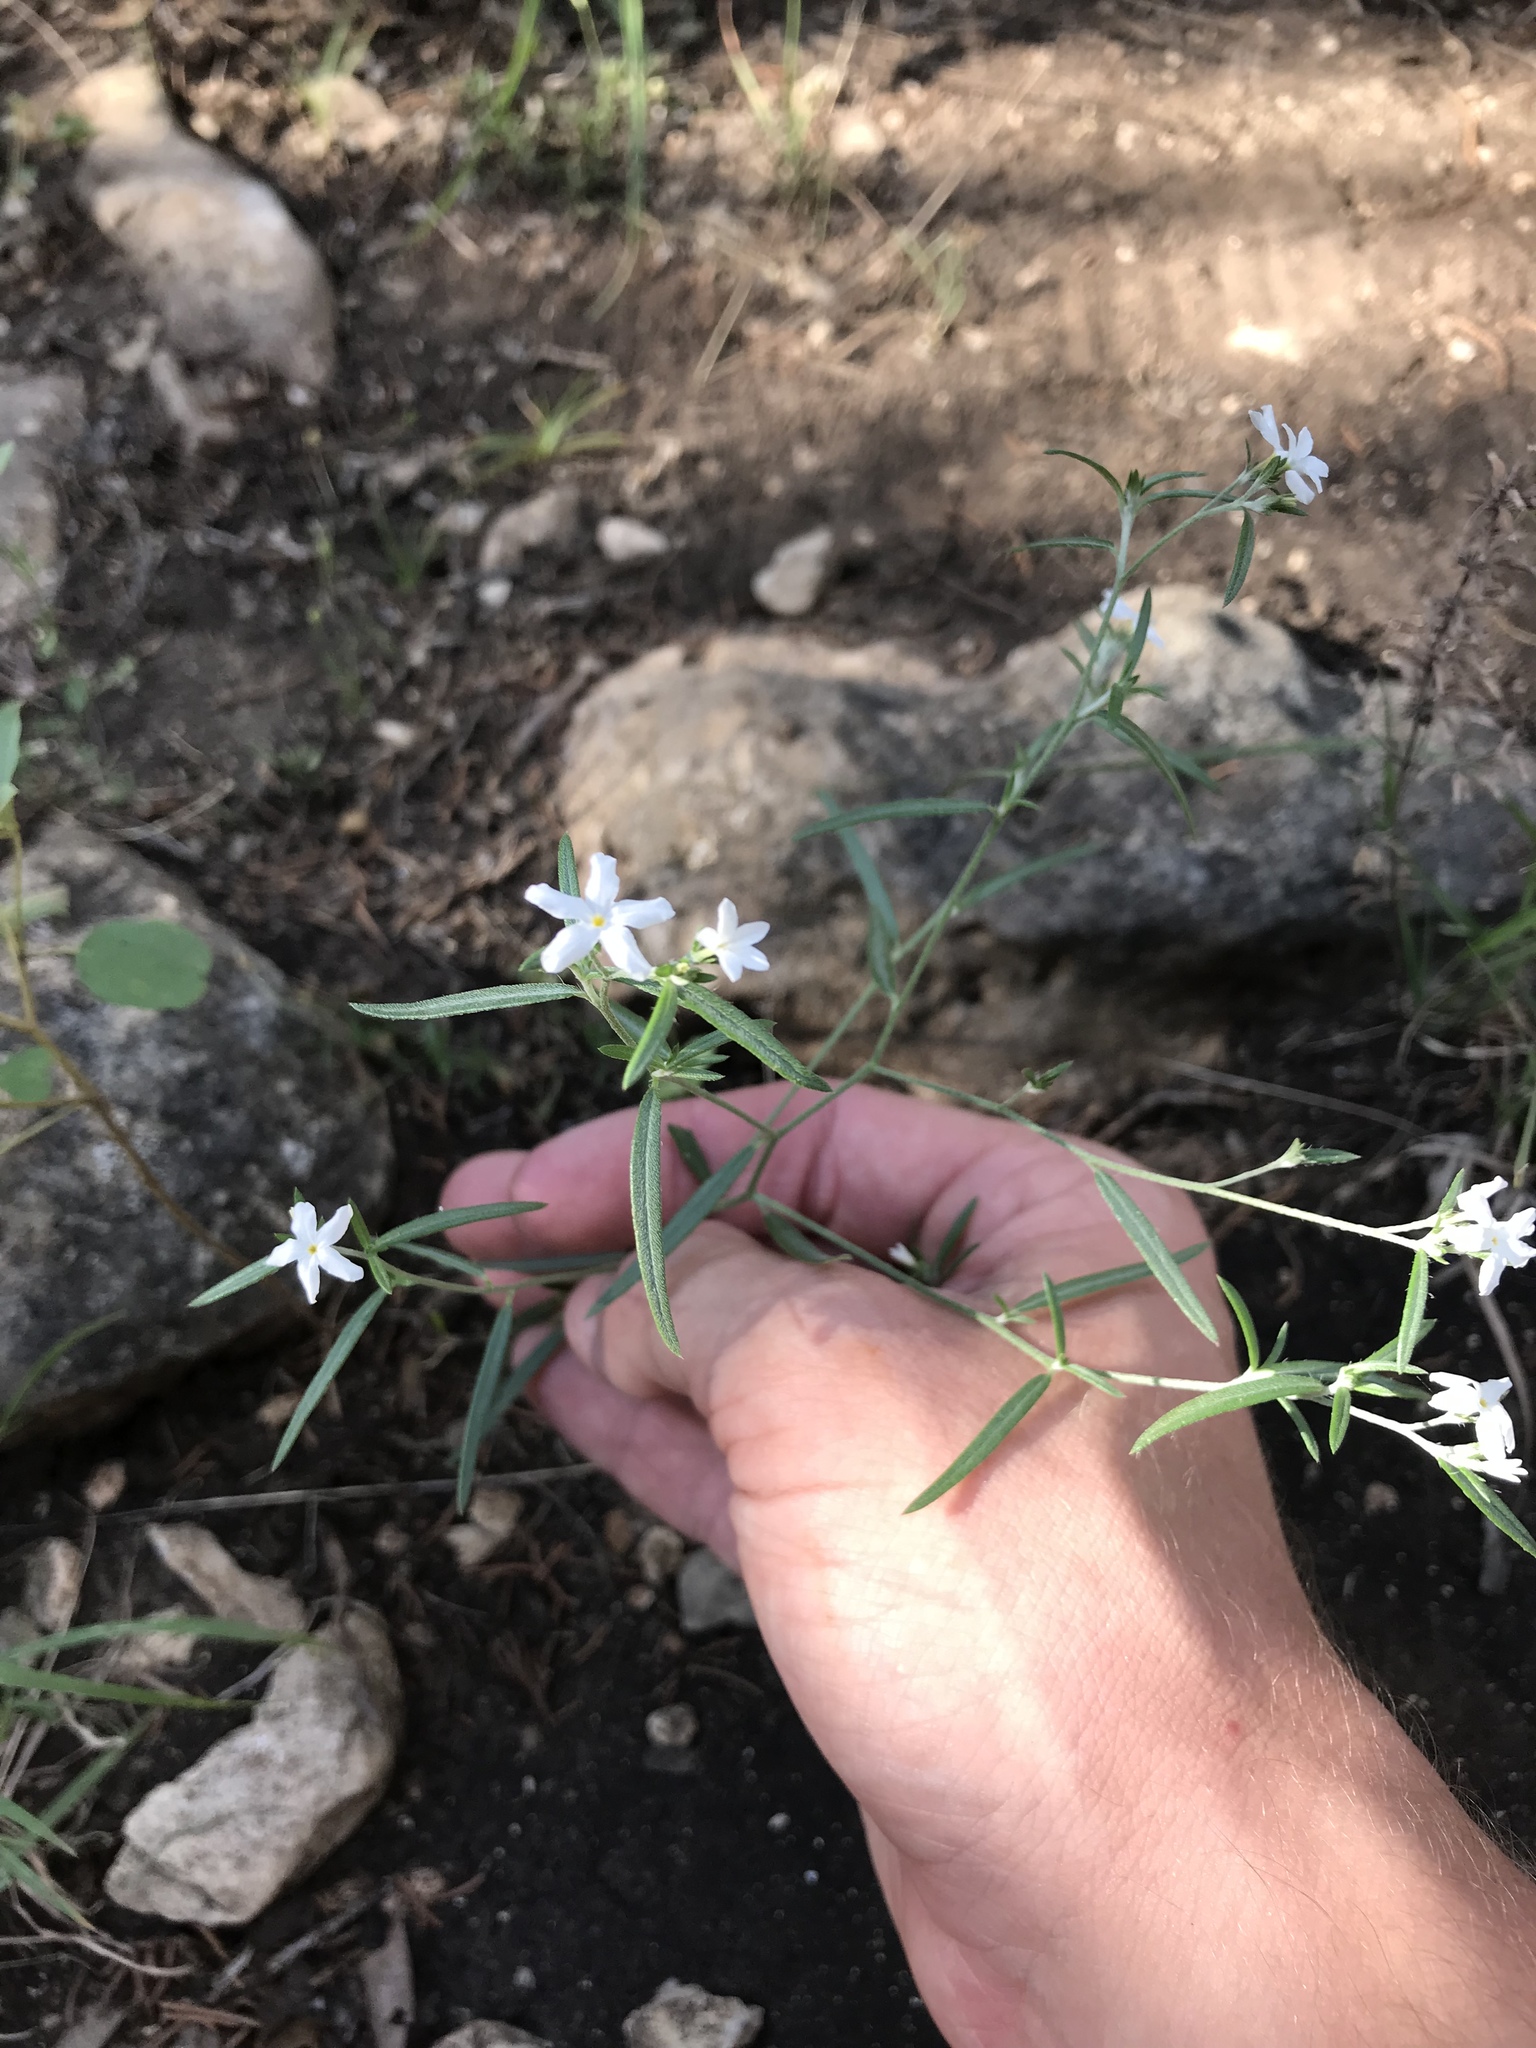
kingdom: Plantae
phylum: Tracheophyta
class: Magnoliopsida
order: Boraginales
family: Heliotropiaceae
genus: Euploca
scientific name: Euploca tenella
